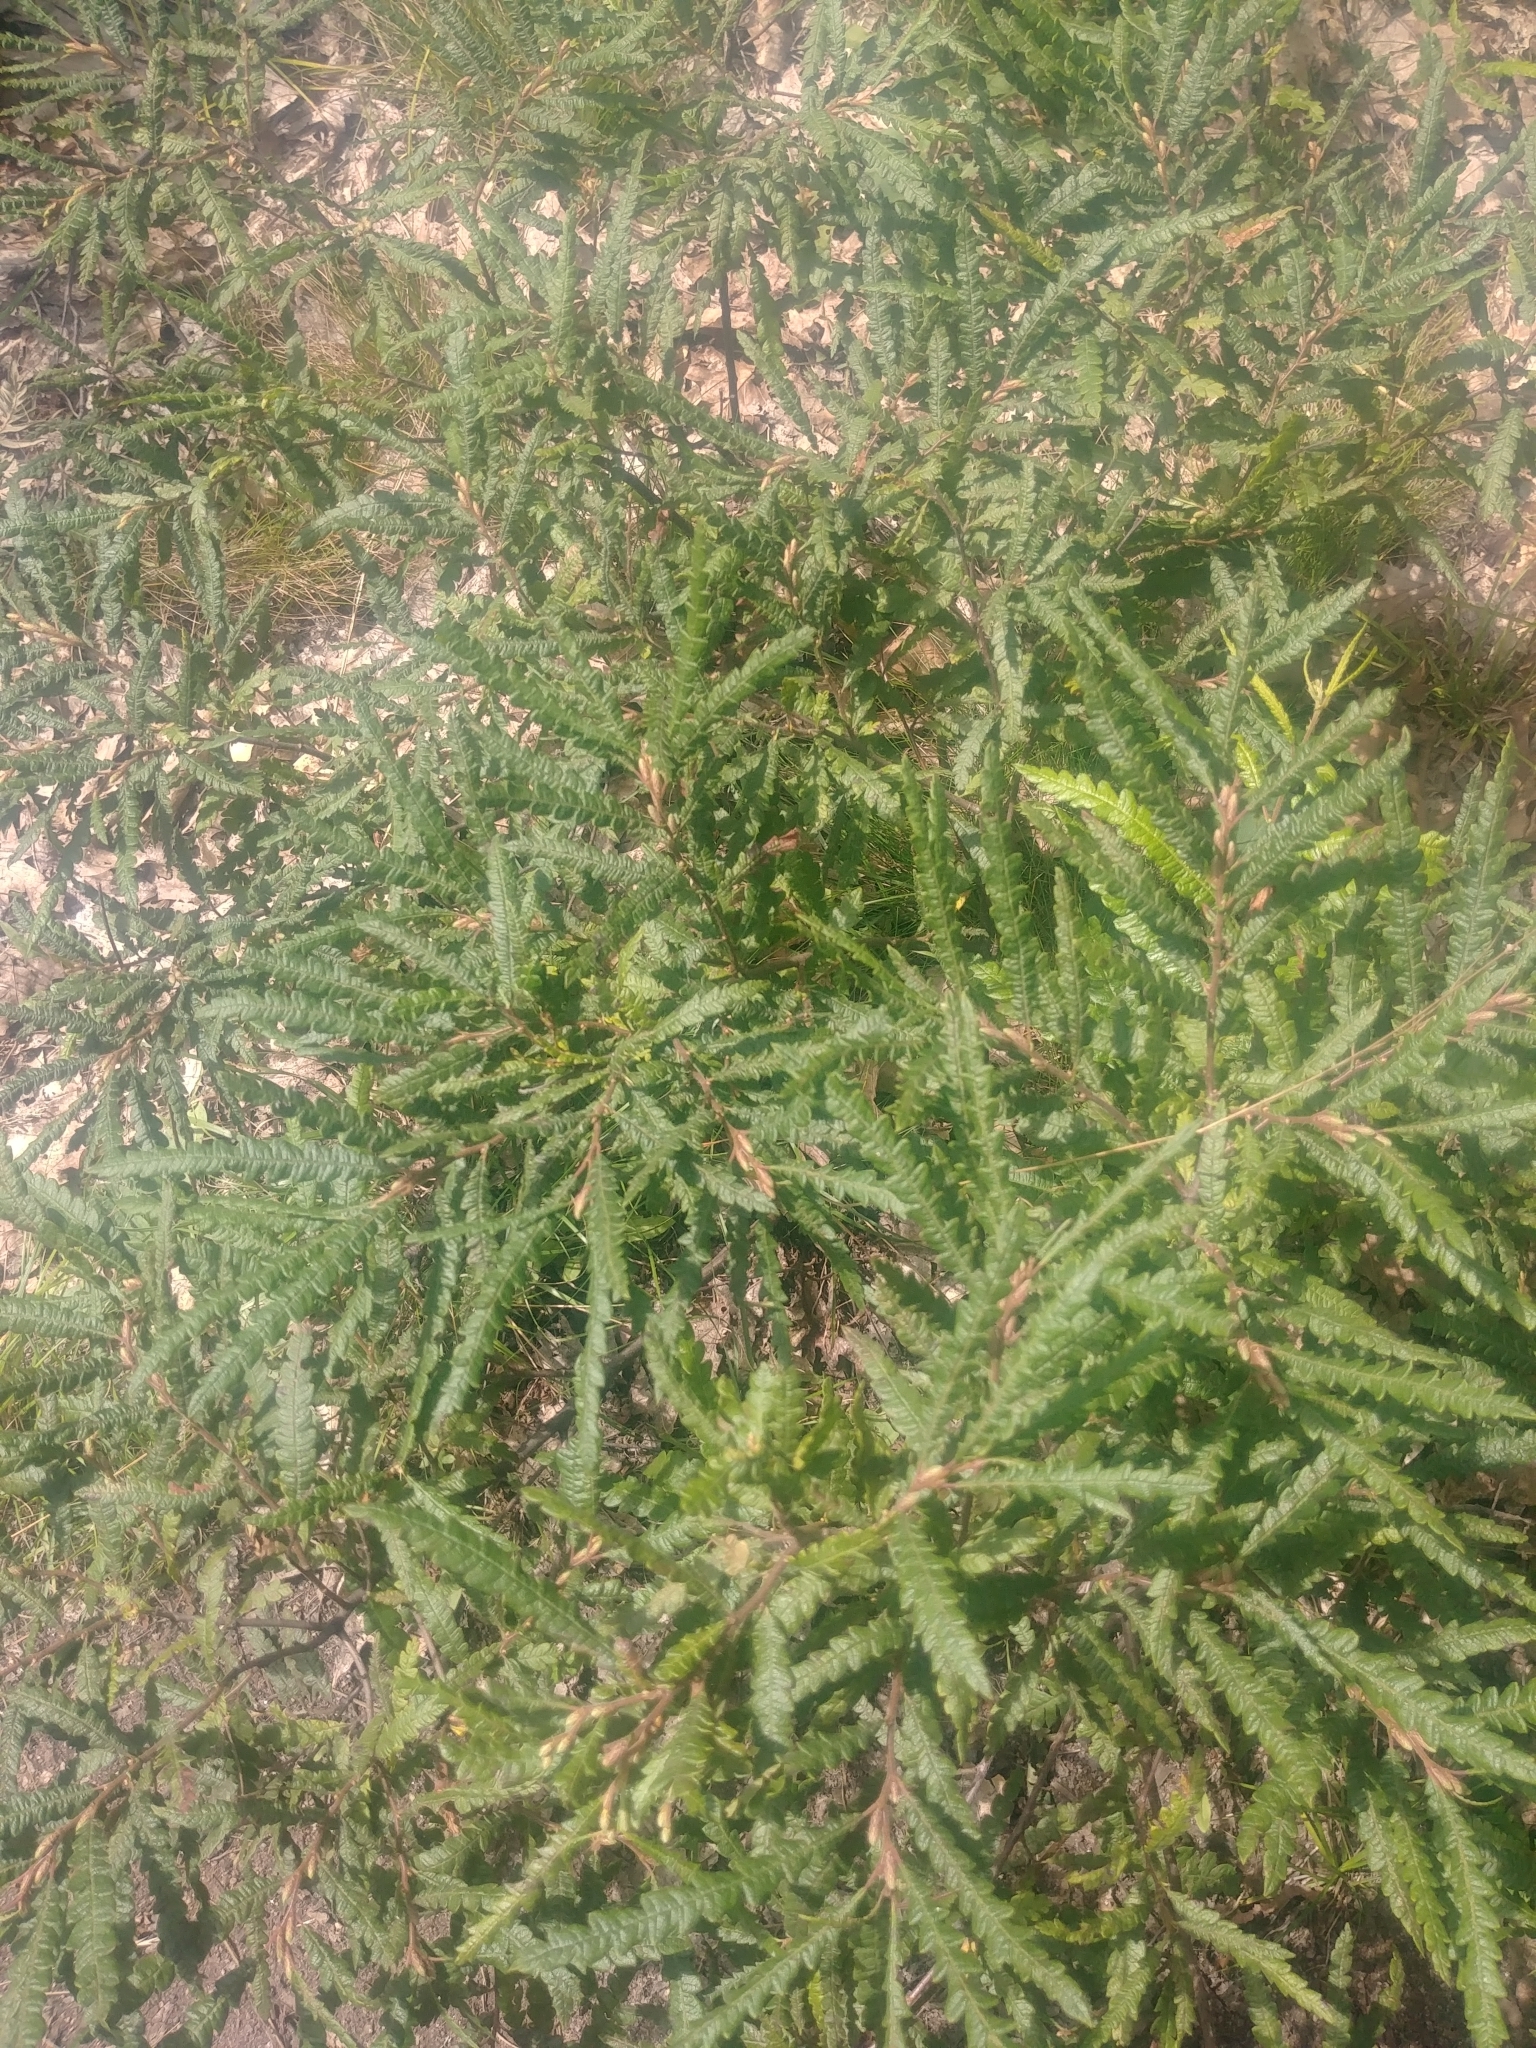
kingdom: Plantae
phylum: Tracheophyta
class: Magnoliopsida
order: Fagales
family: Myricaceae
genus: Comptonia
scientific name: Comptonia peregrina
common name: Sweet-fern
